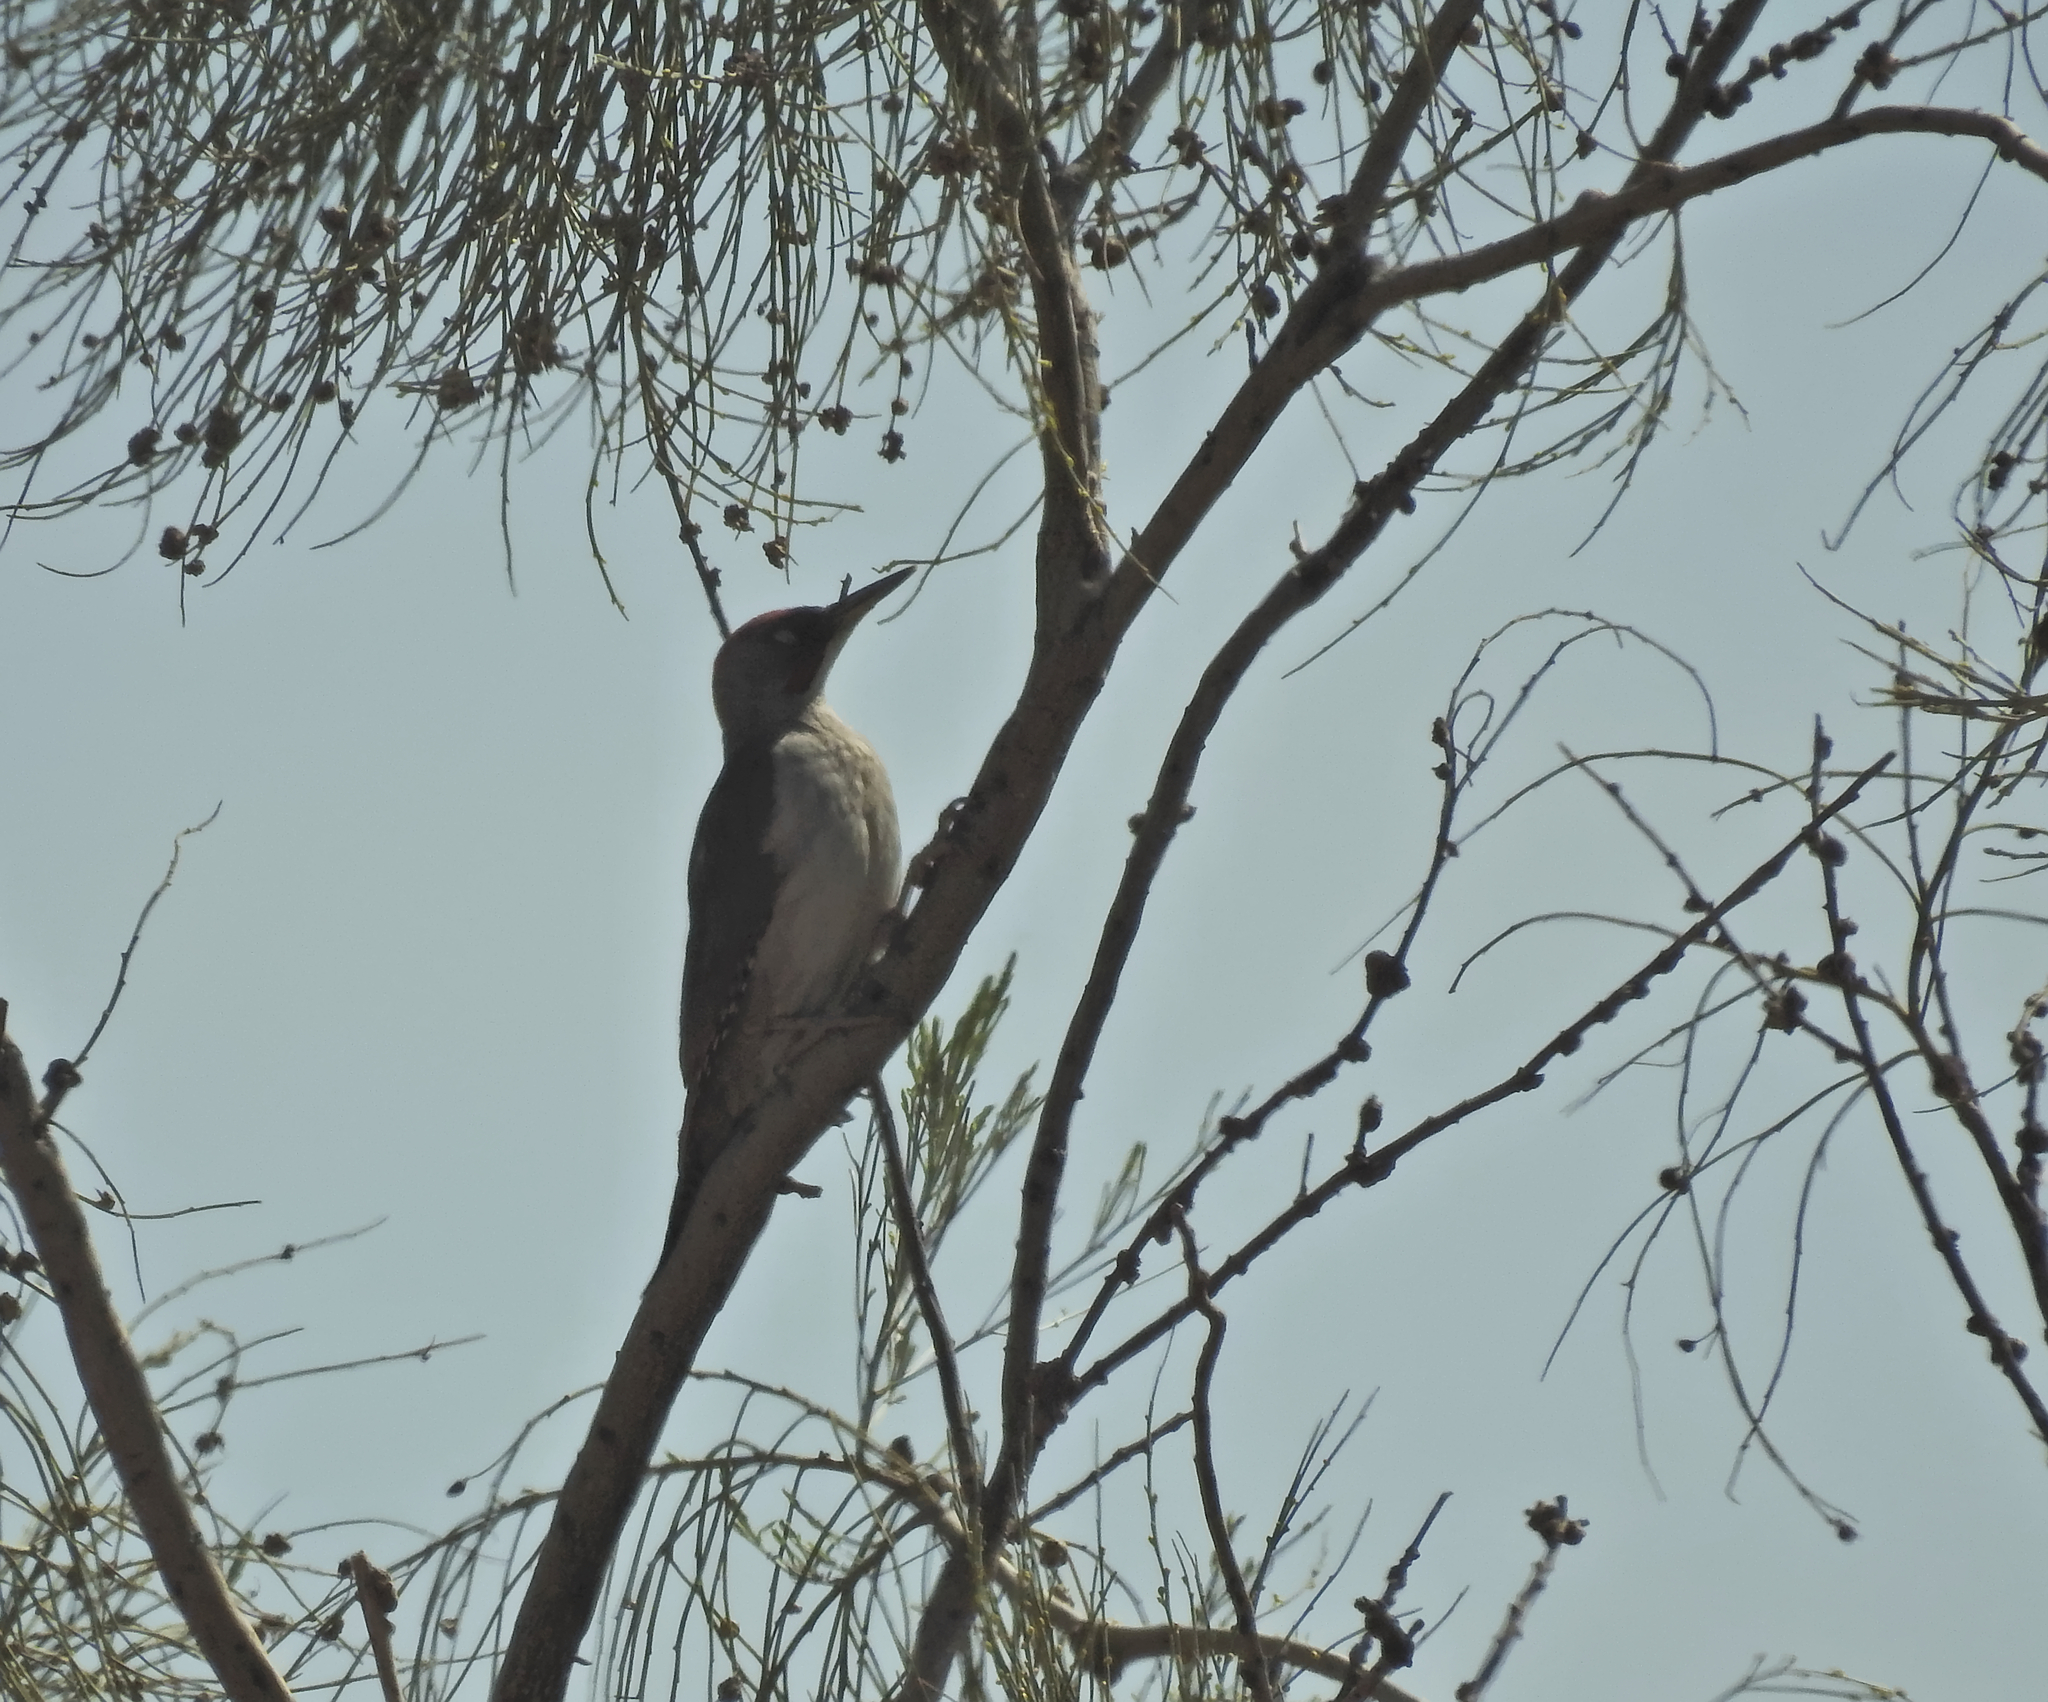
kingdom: Animalia
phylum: Chordata
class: Aves
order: Piciformes
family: Picidae
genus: Picus
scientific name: Picus sharpei
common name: Iberian green woodpecker
